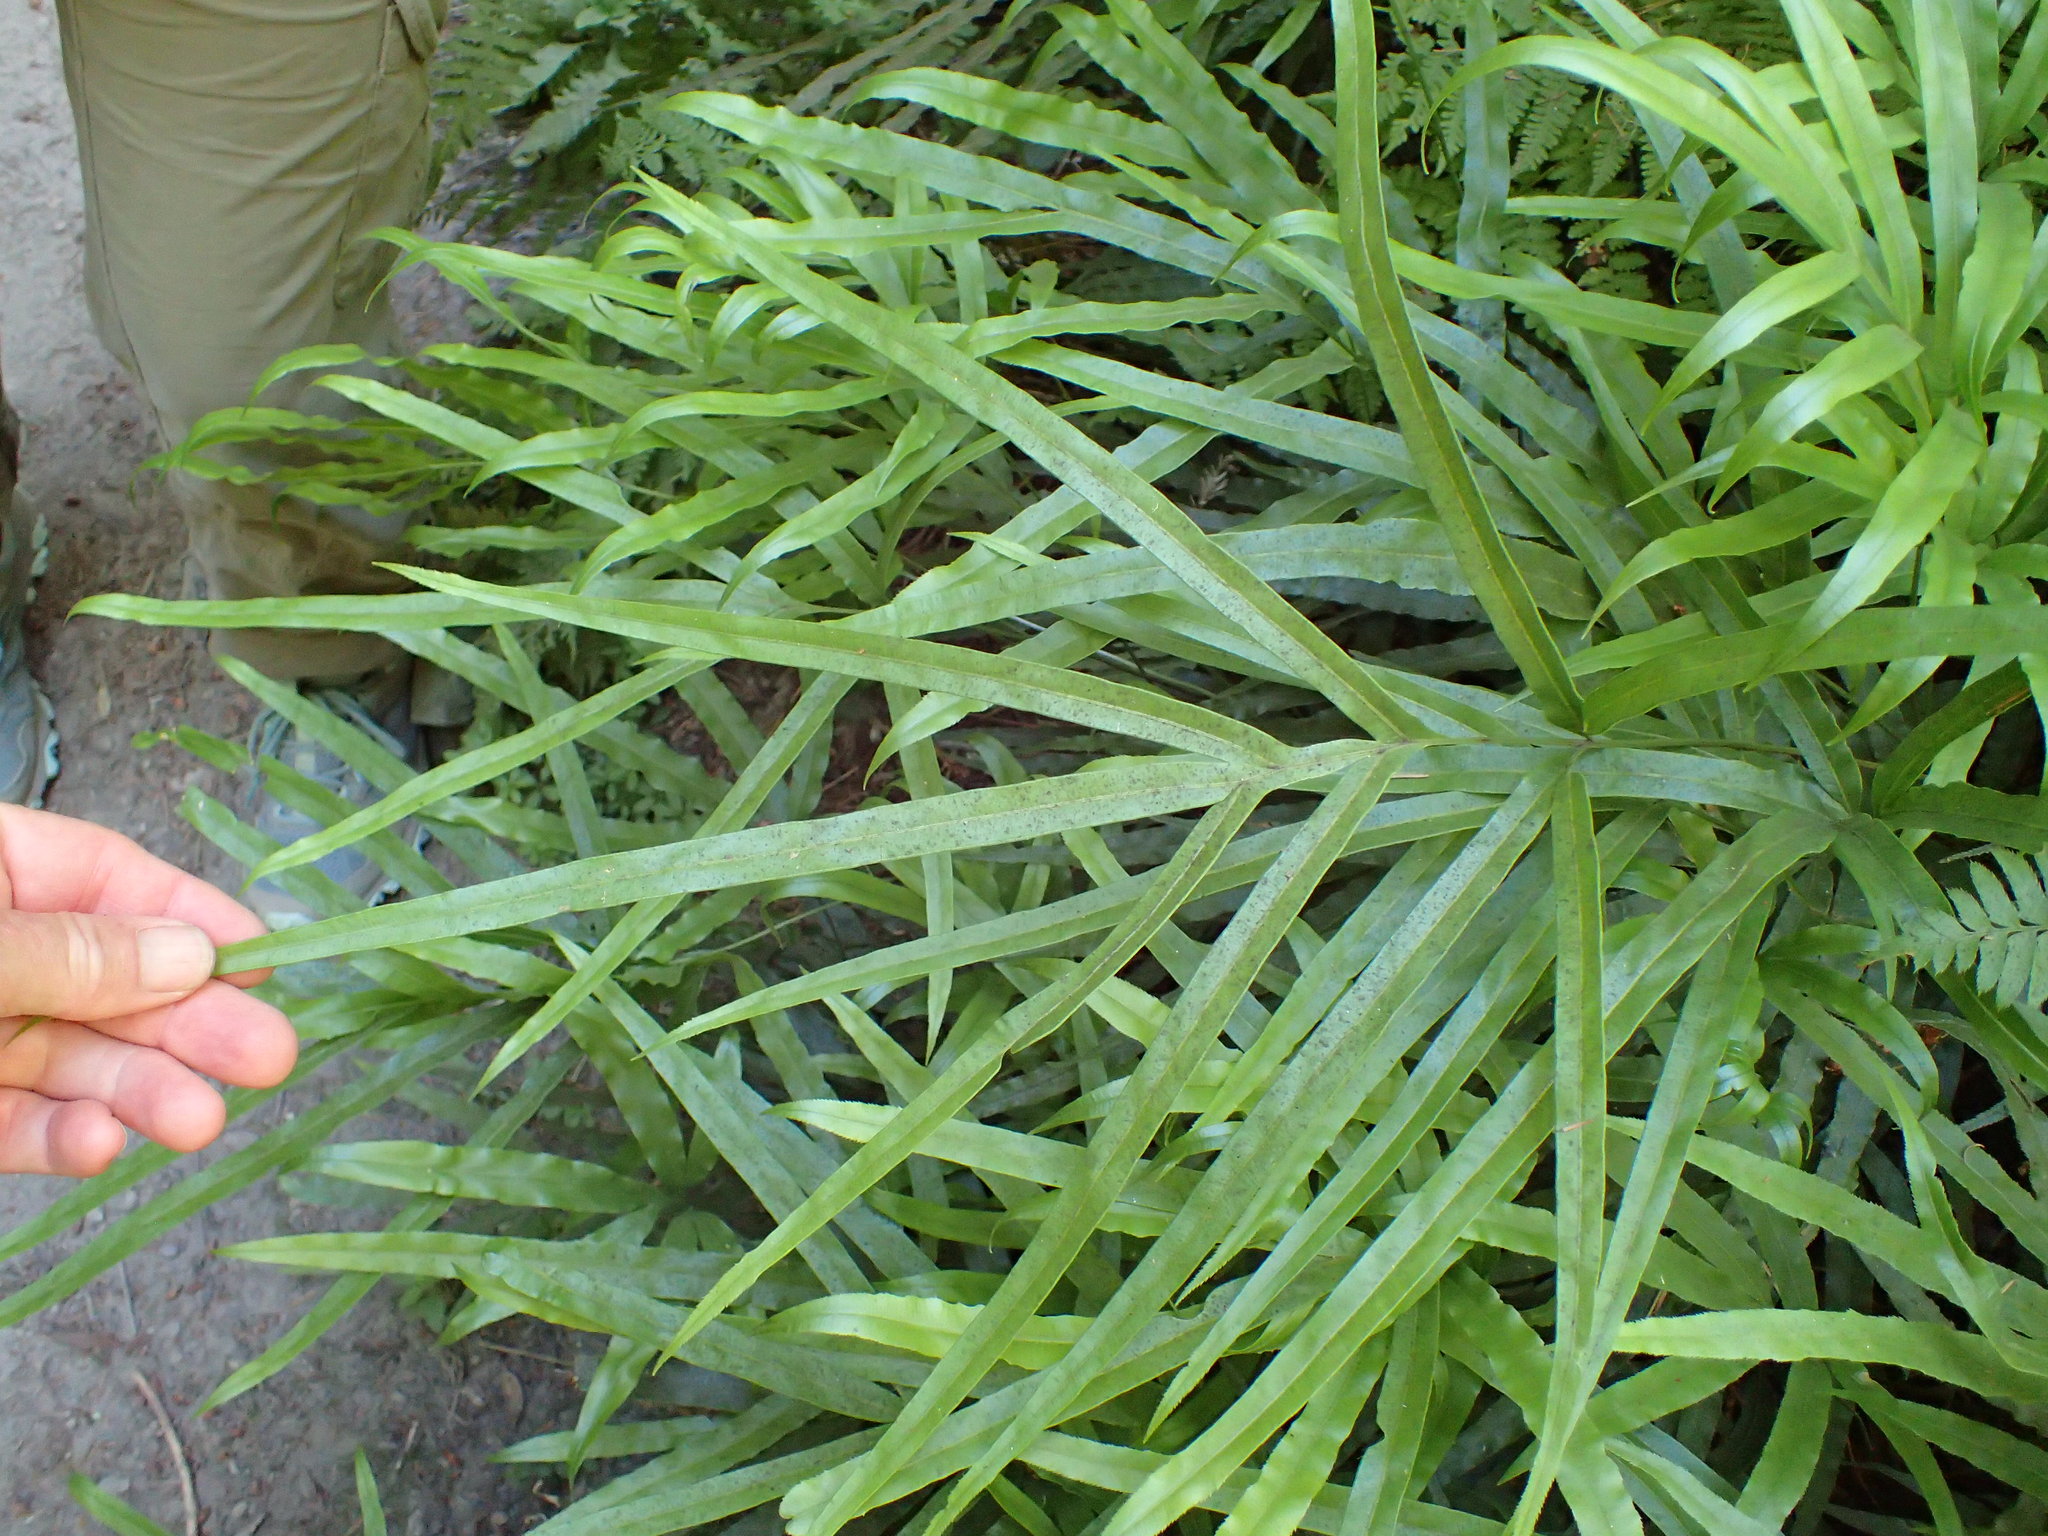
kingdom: Plantae
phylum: Tracheophyta
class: Polypodiopsida
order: Polypodiales
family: Pteridaceae
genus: Pteris
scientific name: Pteris cretica
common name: Ribbon fern
